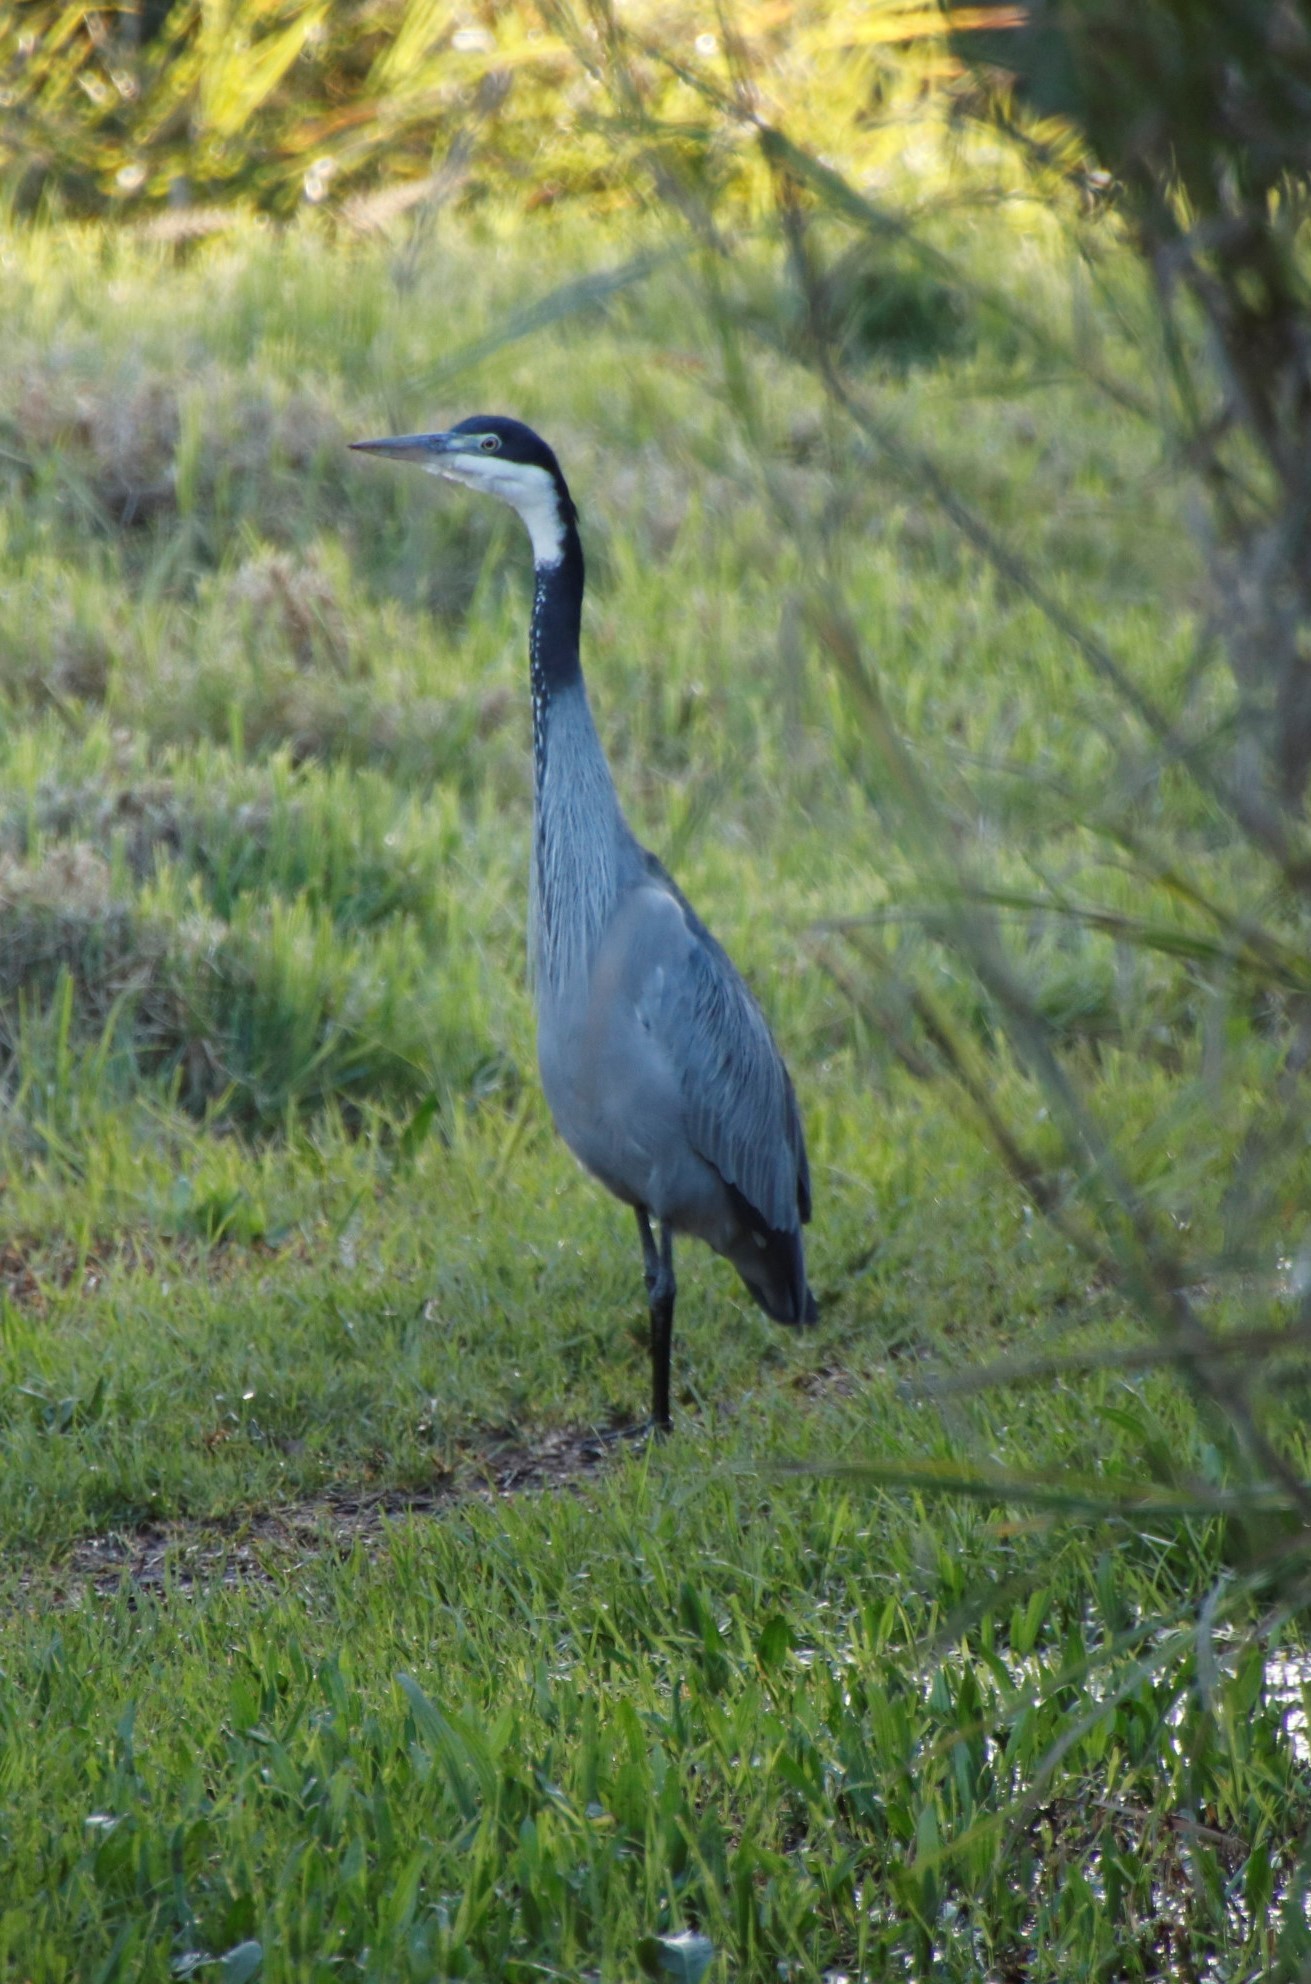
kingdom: Animalia
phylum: Chordata
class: Aves
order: Pelecaniformes
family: Ardeidae
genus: Ardea
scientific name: Ardea melanocephala
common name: Black-headed heron
